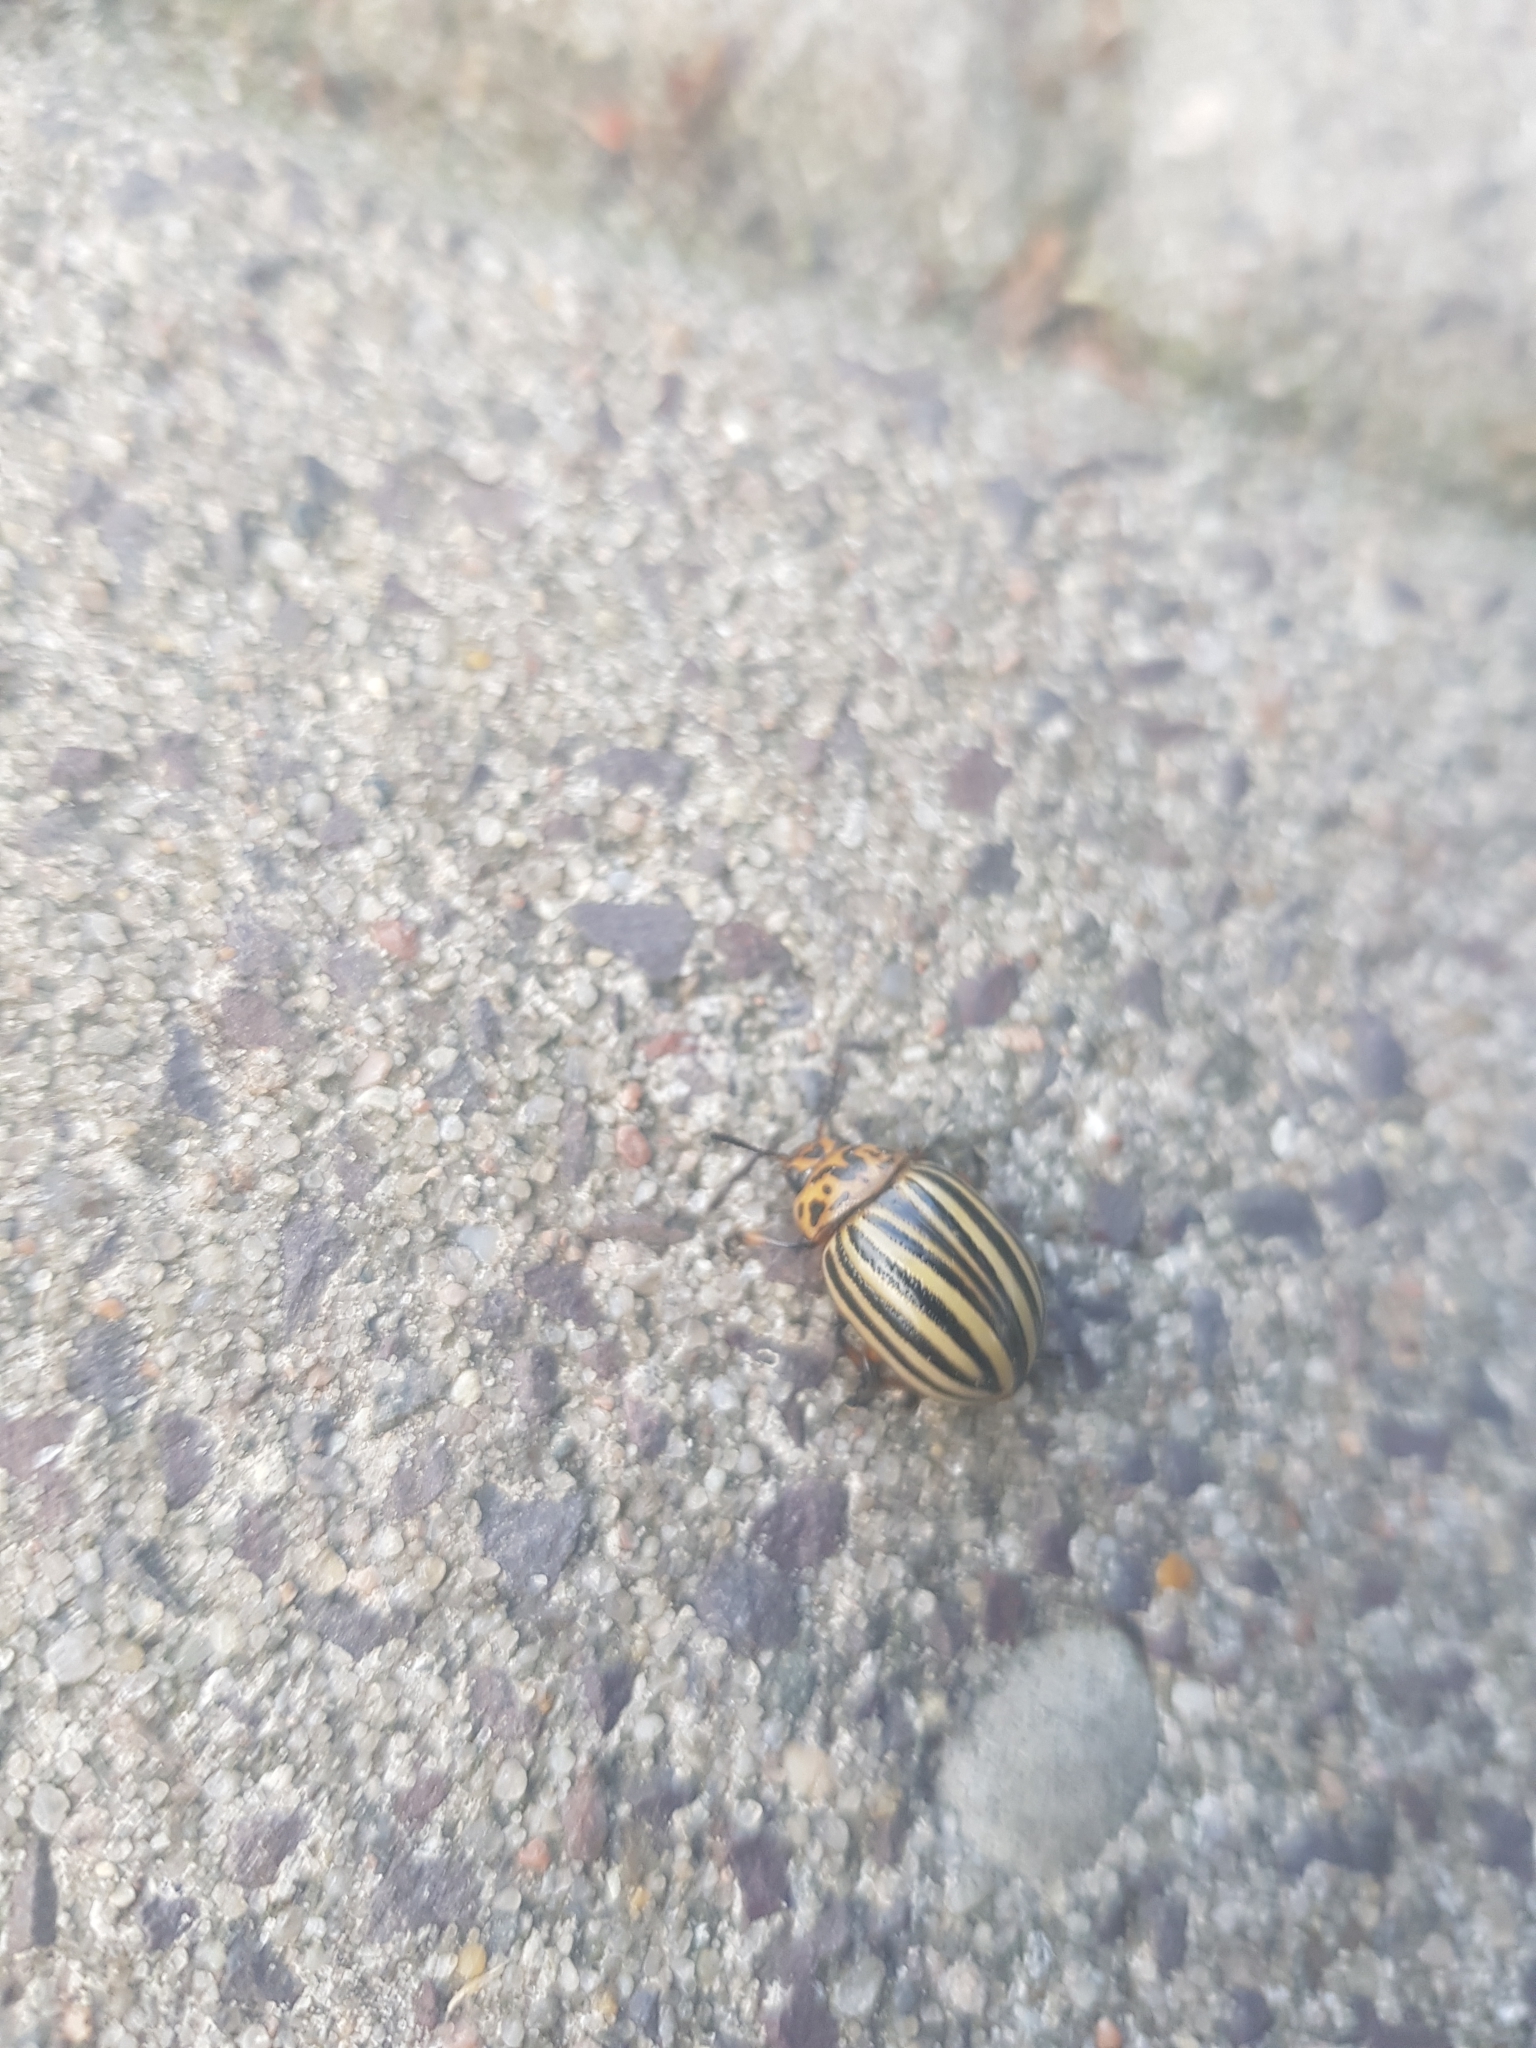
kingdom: Animalia
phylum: Arthropoda
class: Insecta
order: Coleoptera
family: Chrysomelidae
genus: Leptinotarsa
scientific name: Leptinotarsa decemlineata
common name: Colorado potato beetle
